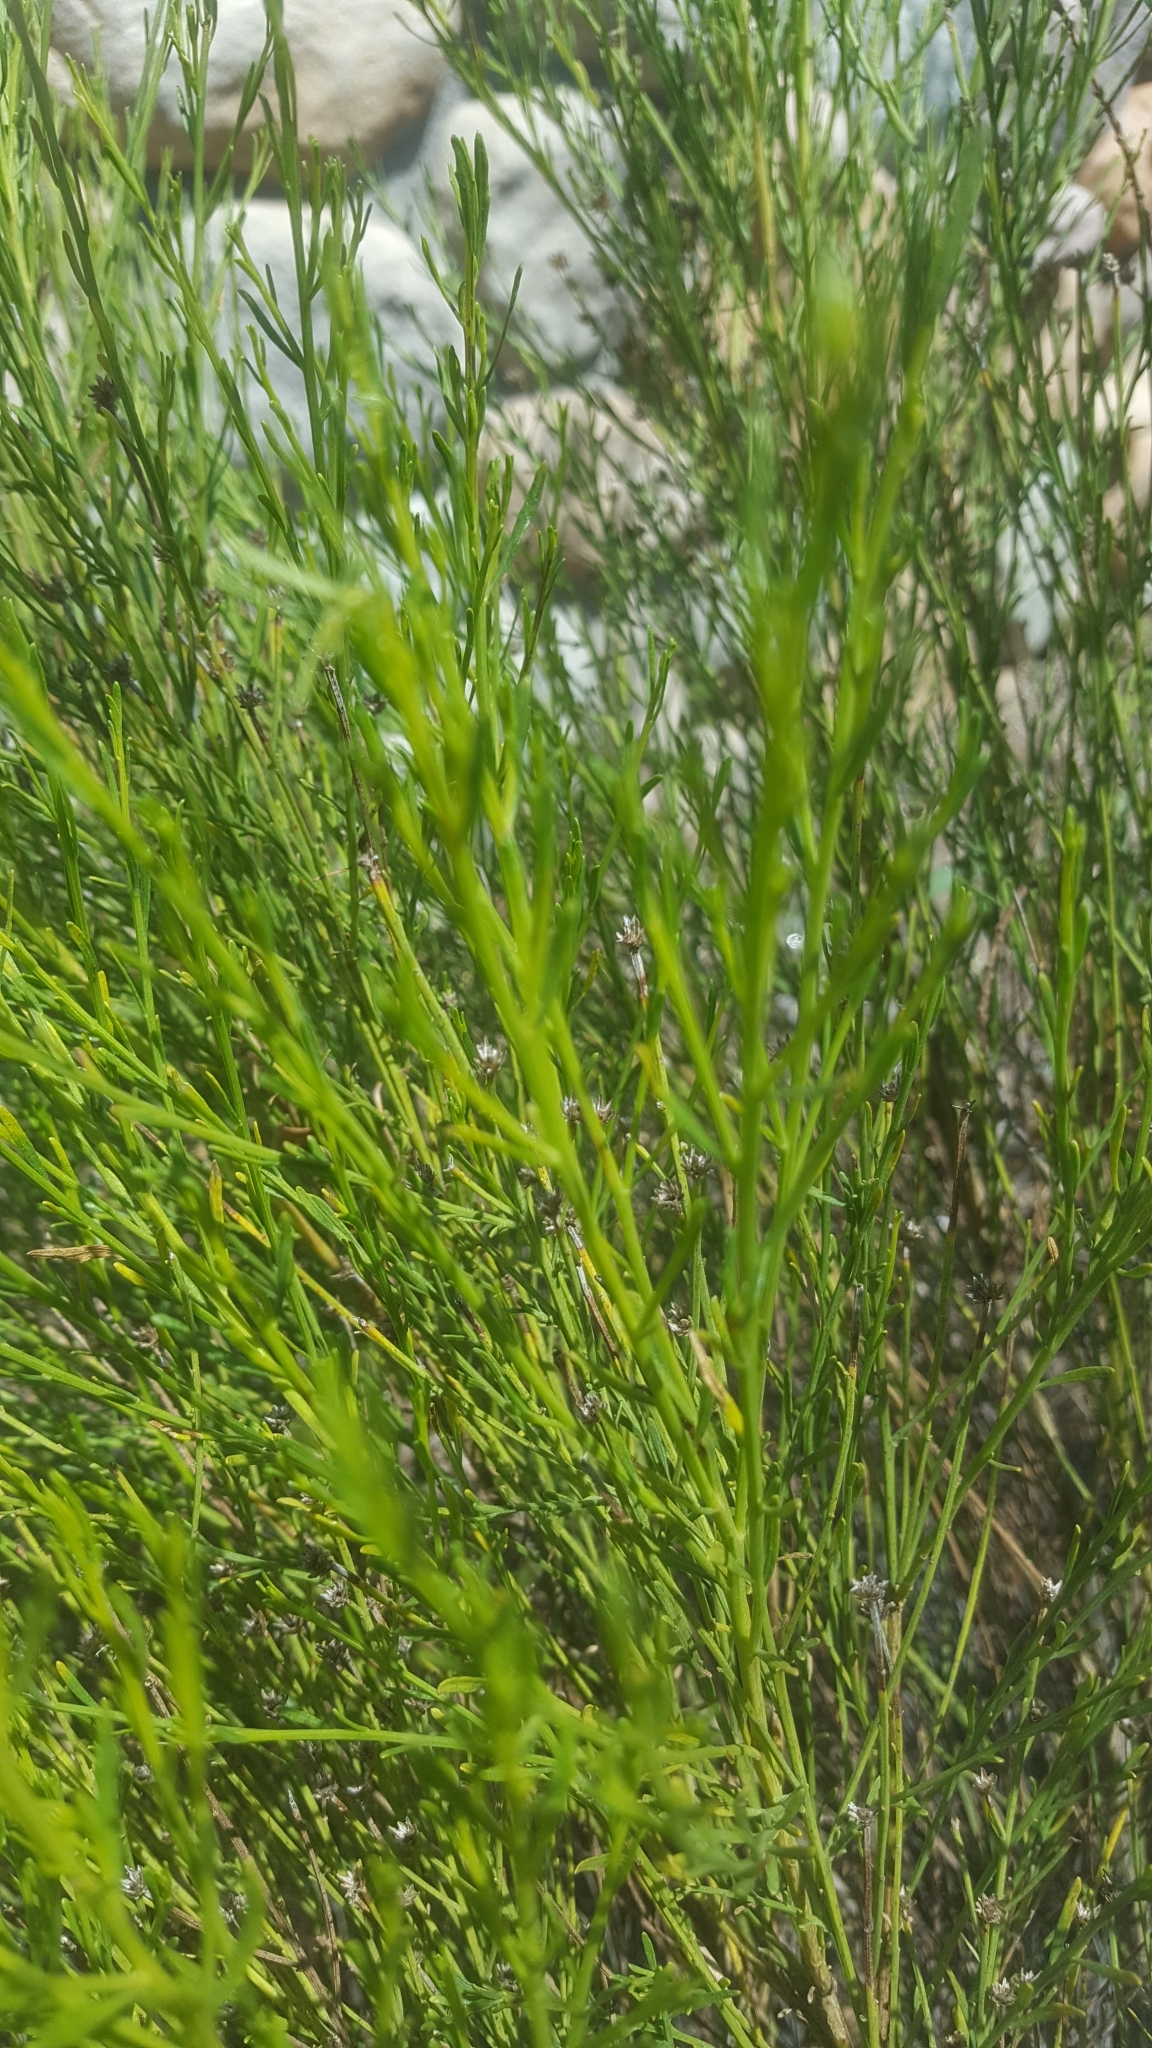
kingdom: Plantae
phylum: Tracheophyta
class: Magnoliopsida
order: Asterales
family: Asteraceae
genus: Baccharis
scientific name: Baccharis sarothroides
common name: Desert-broom
